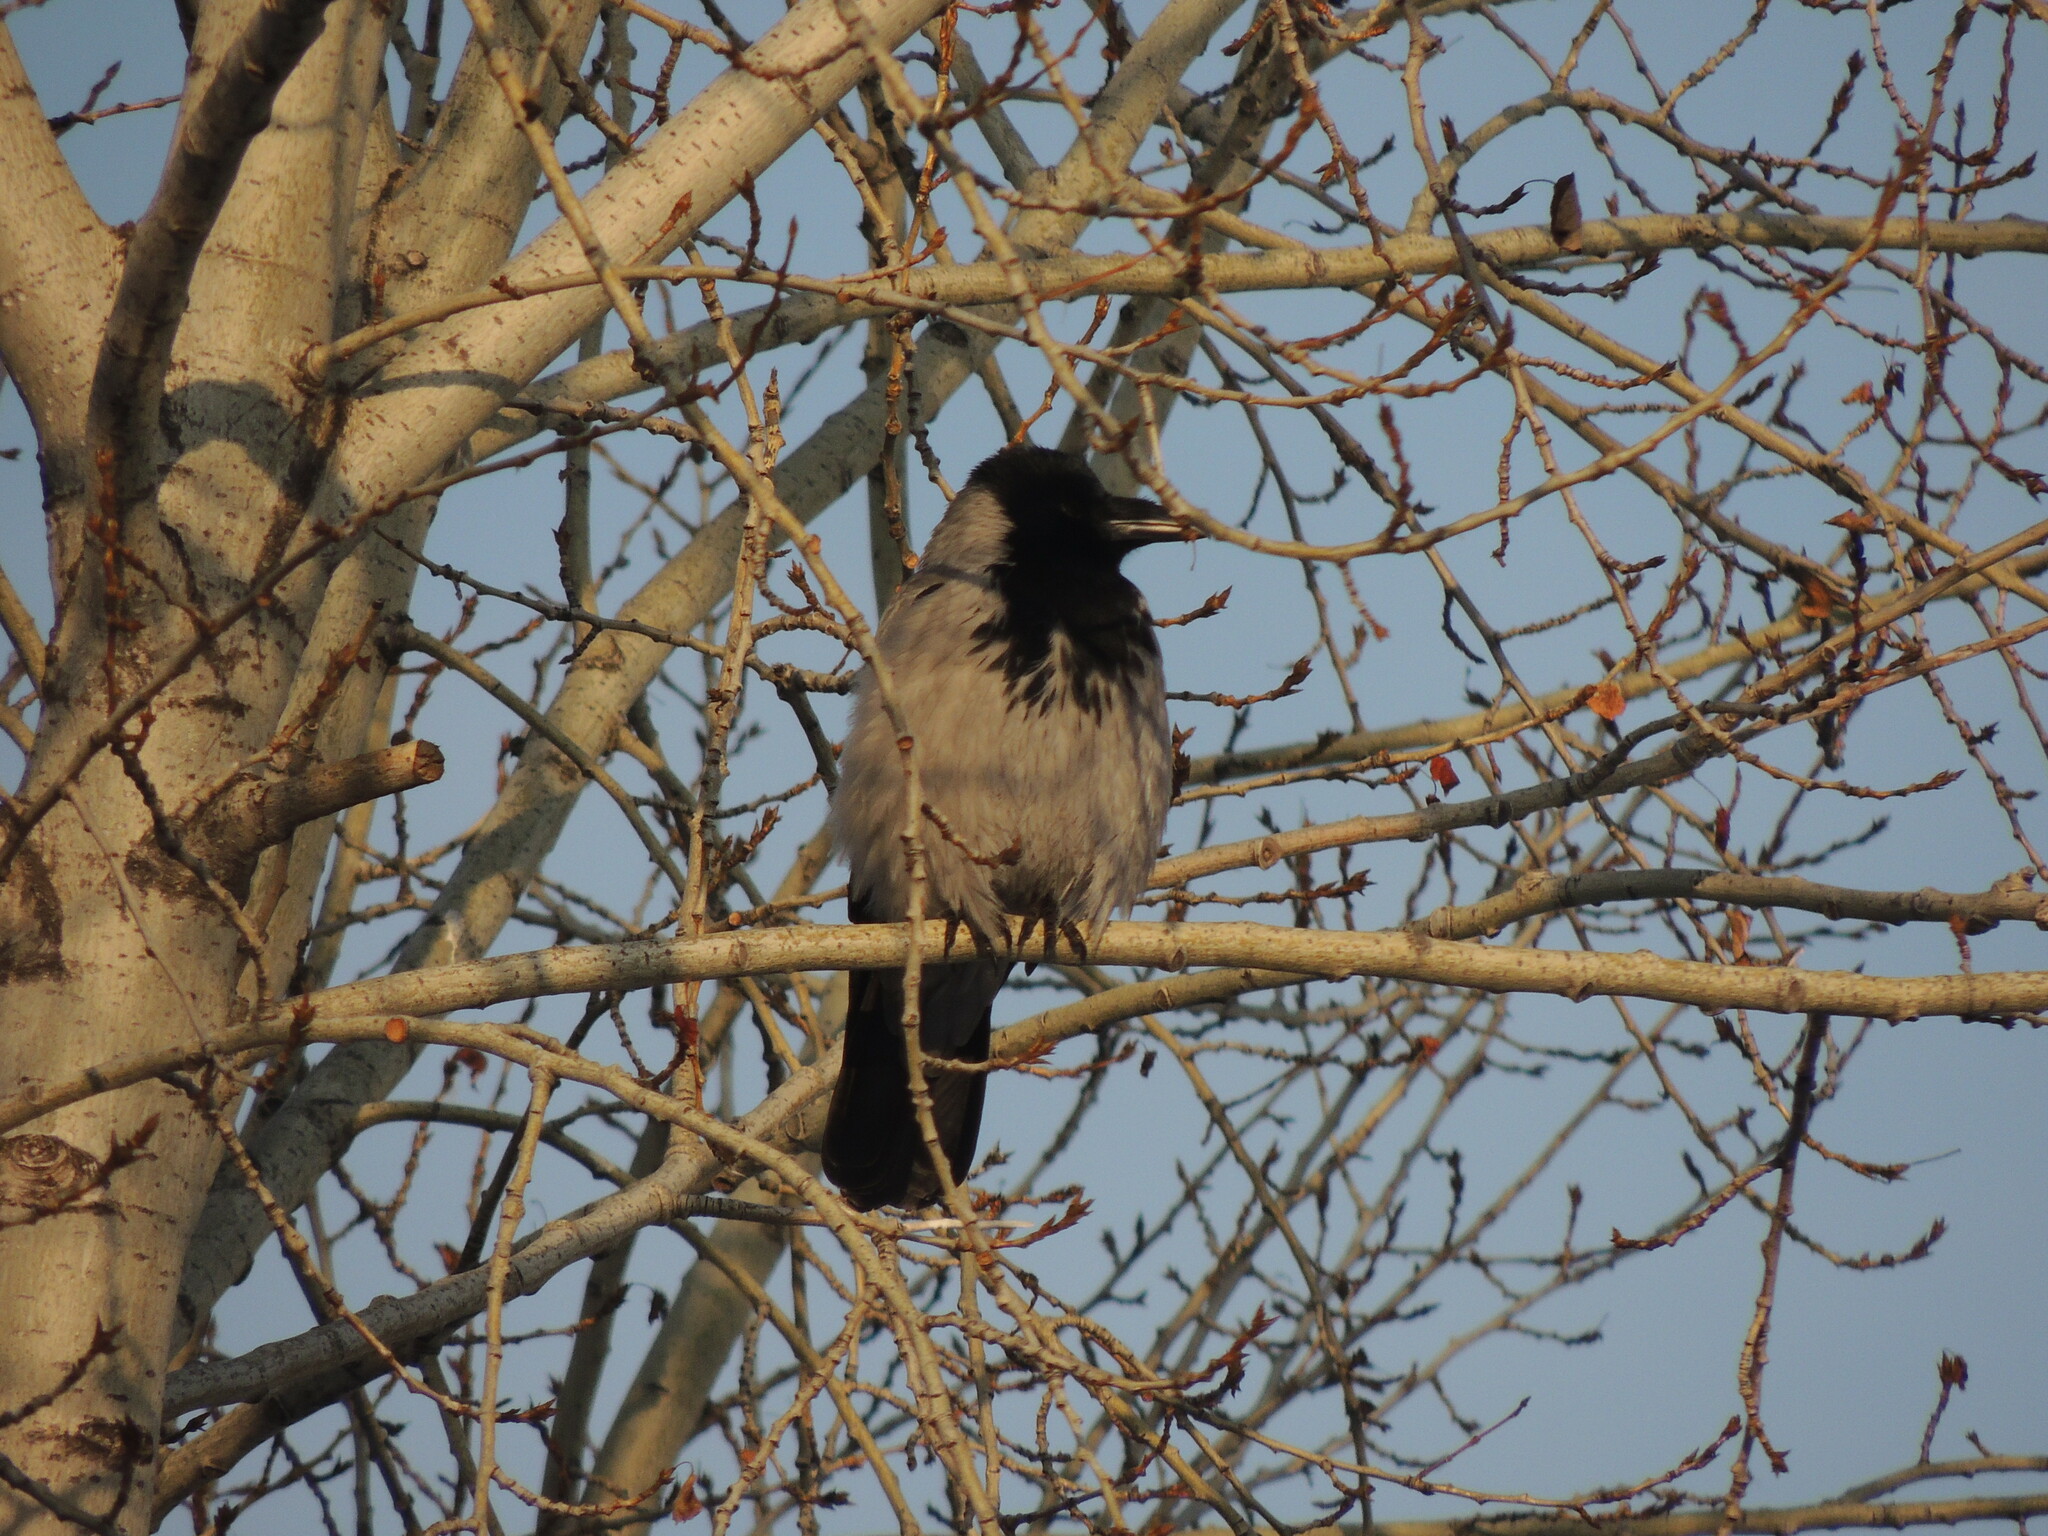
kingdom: Animalia
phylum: Chordata
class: Aves
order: Passeriformes
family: Corvidae
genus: Corvus
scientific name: Corvus cornix
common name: Hooded crow
